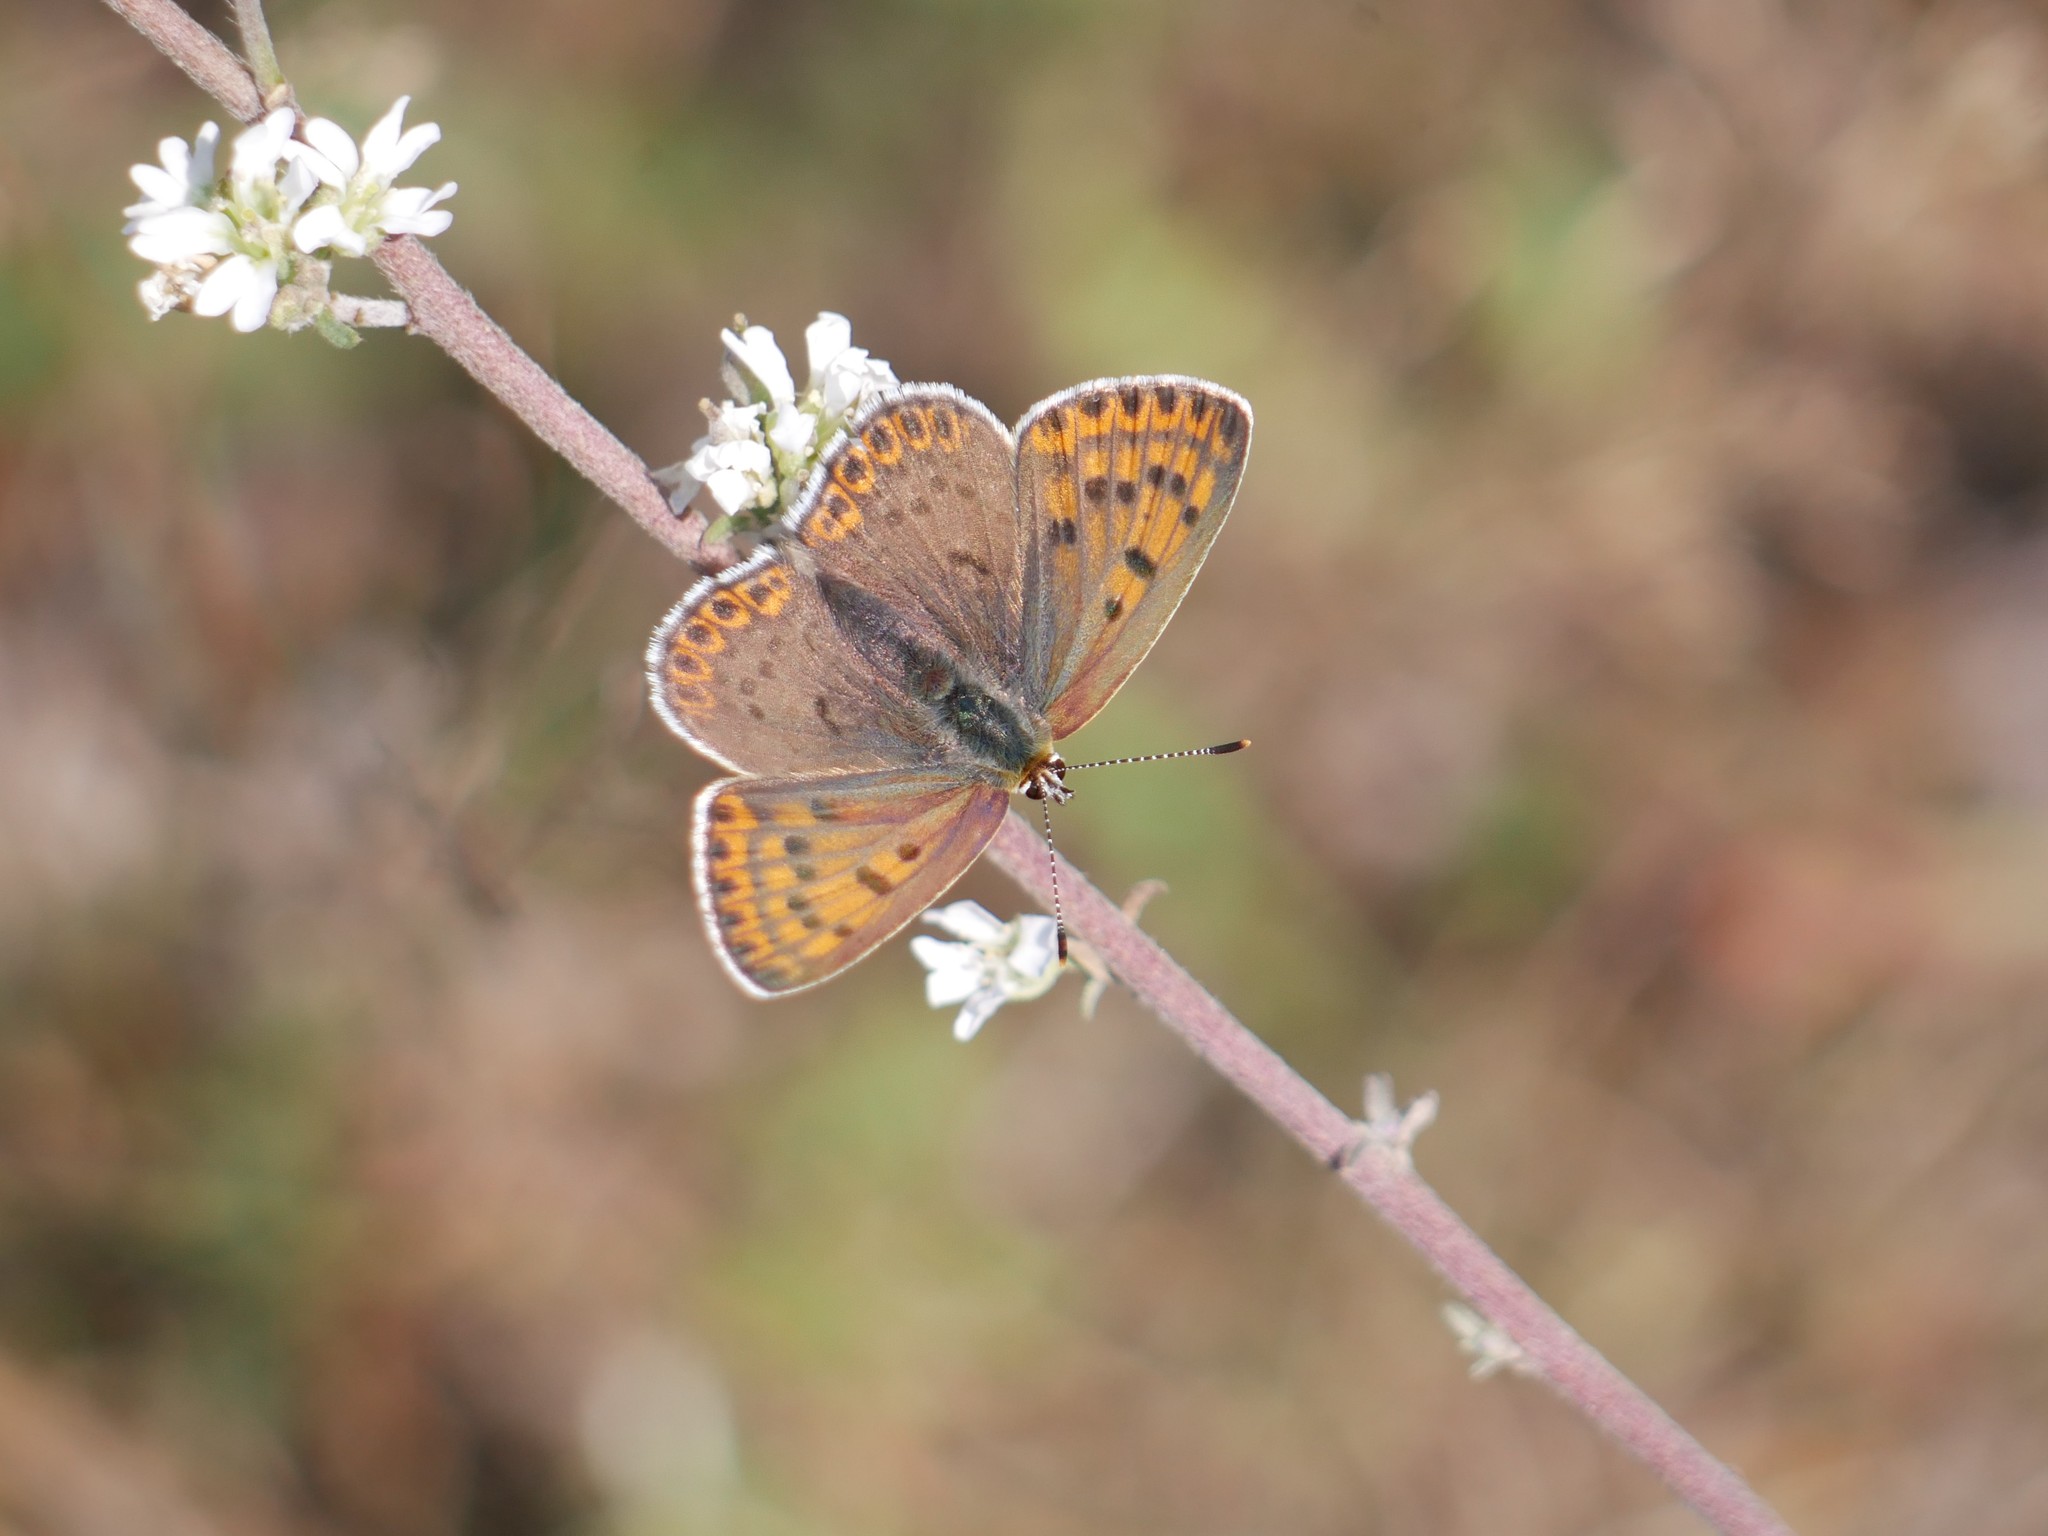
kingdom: Animalia
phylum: Arthropoda
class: Insecta
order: Lepidoptera
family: Lycaenidae
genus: Loweia
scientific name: Loweia tityrus
